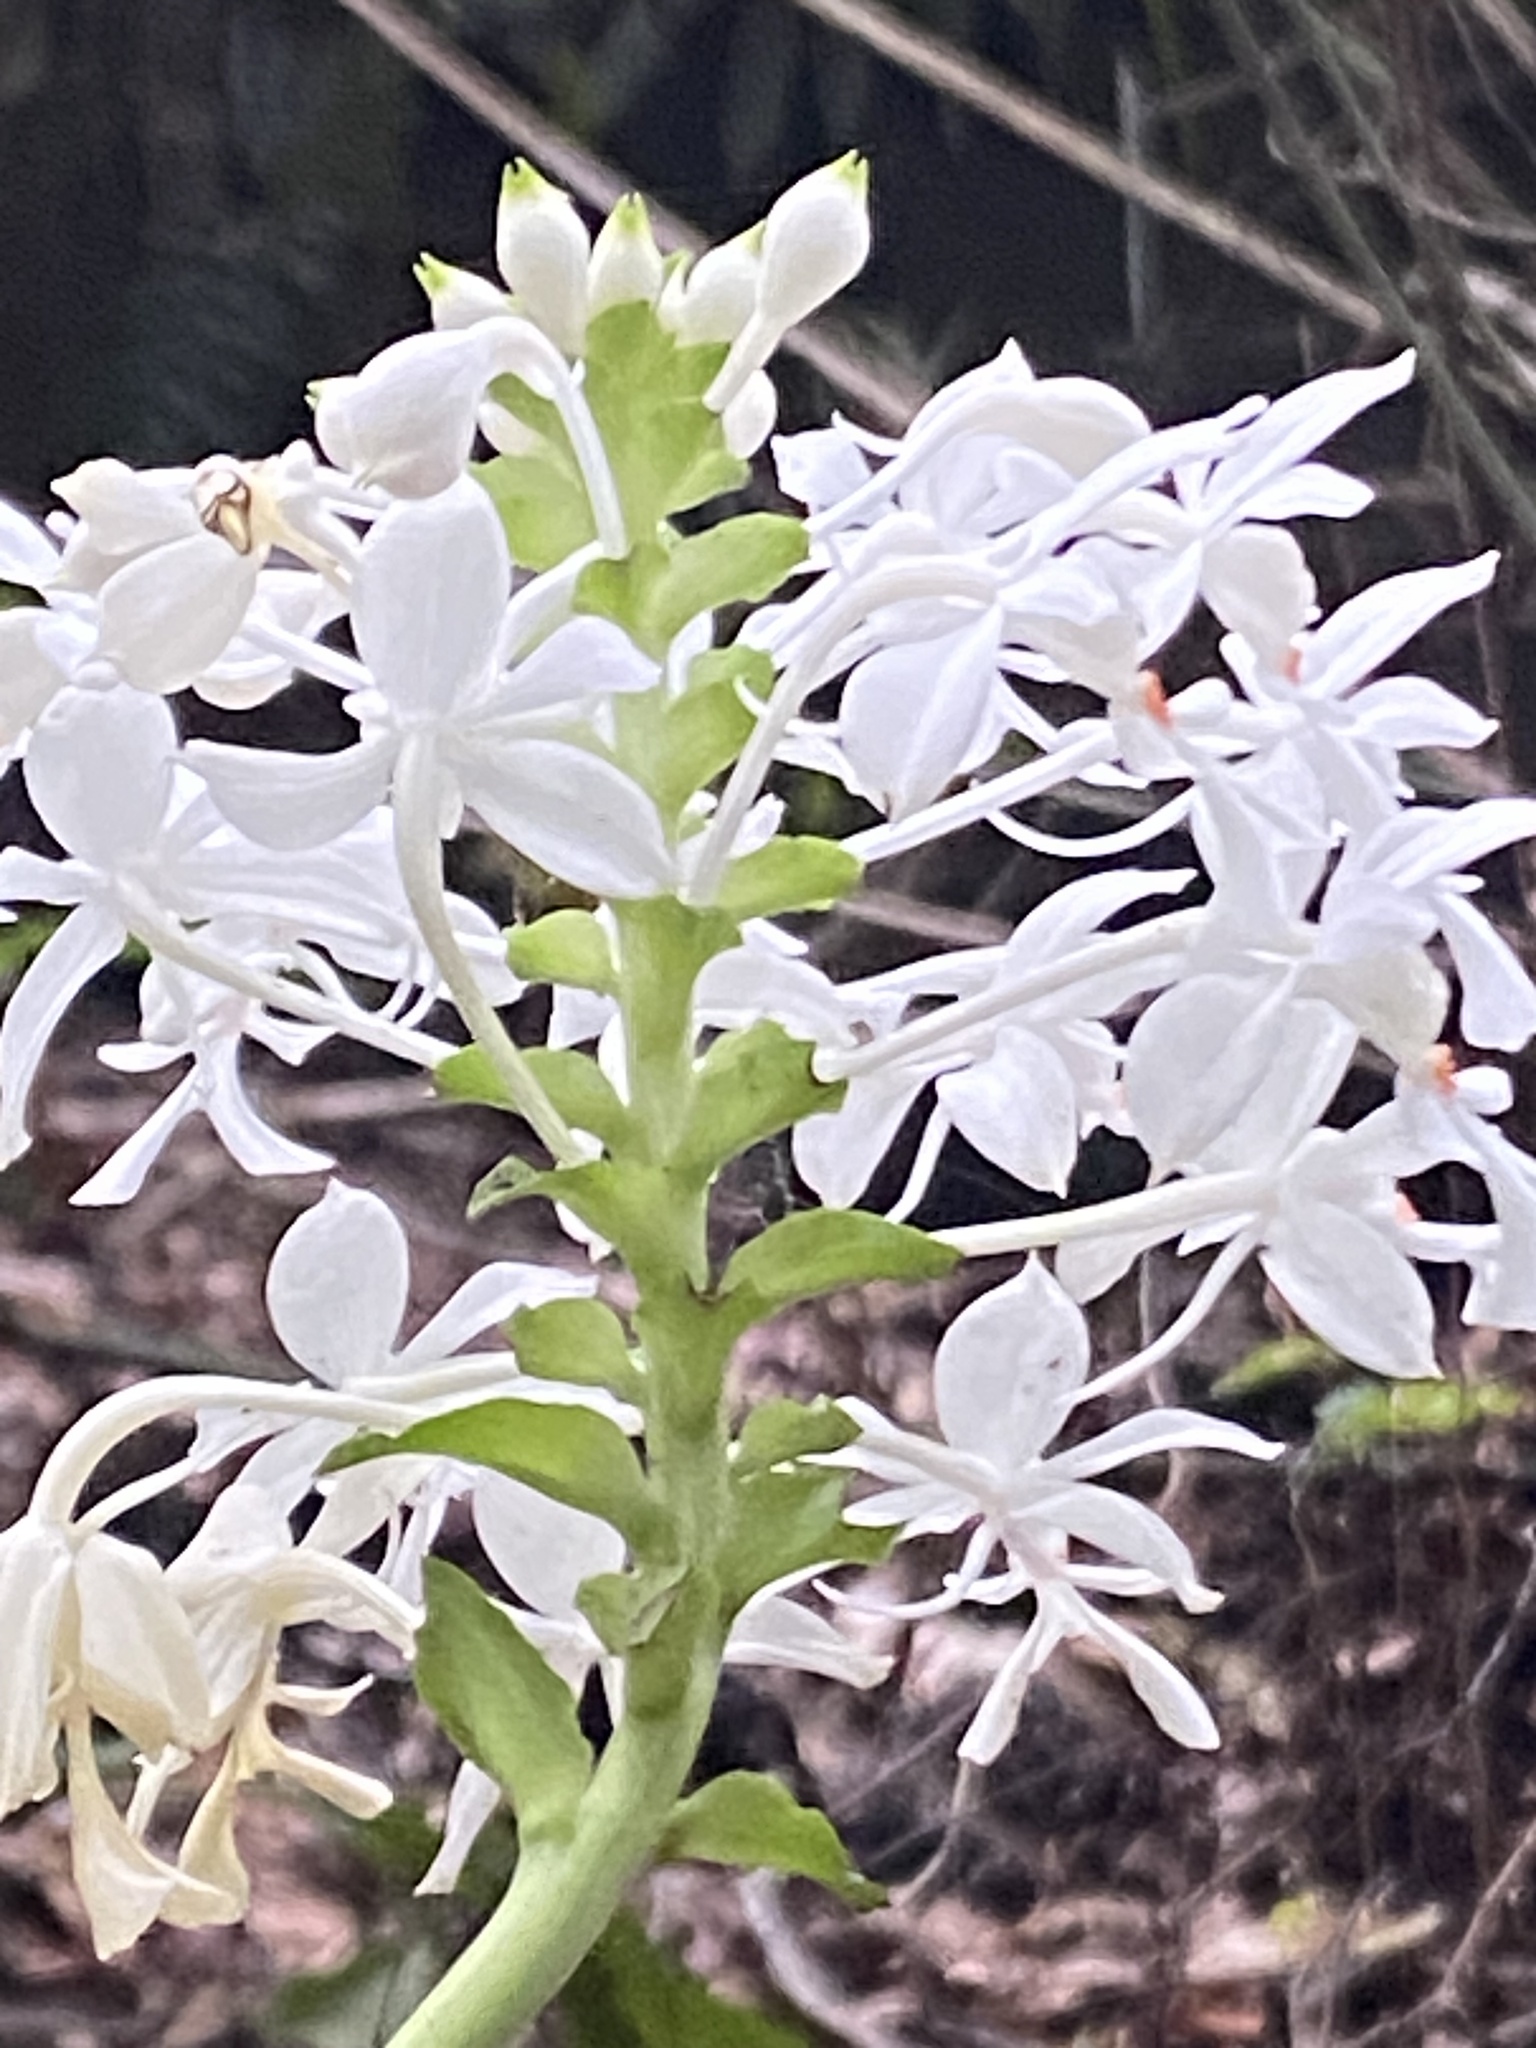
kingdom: Plantae
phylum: Tracheophyta
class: Liliopsida
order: Asparagales
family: Orchidaceae
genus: Calanthe
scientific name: Calanthe triplicata
